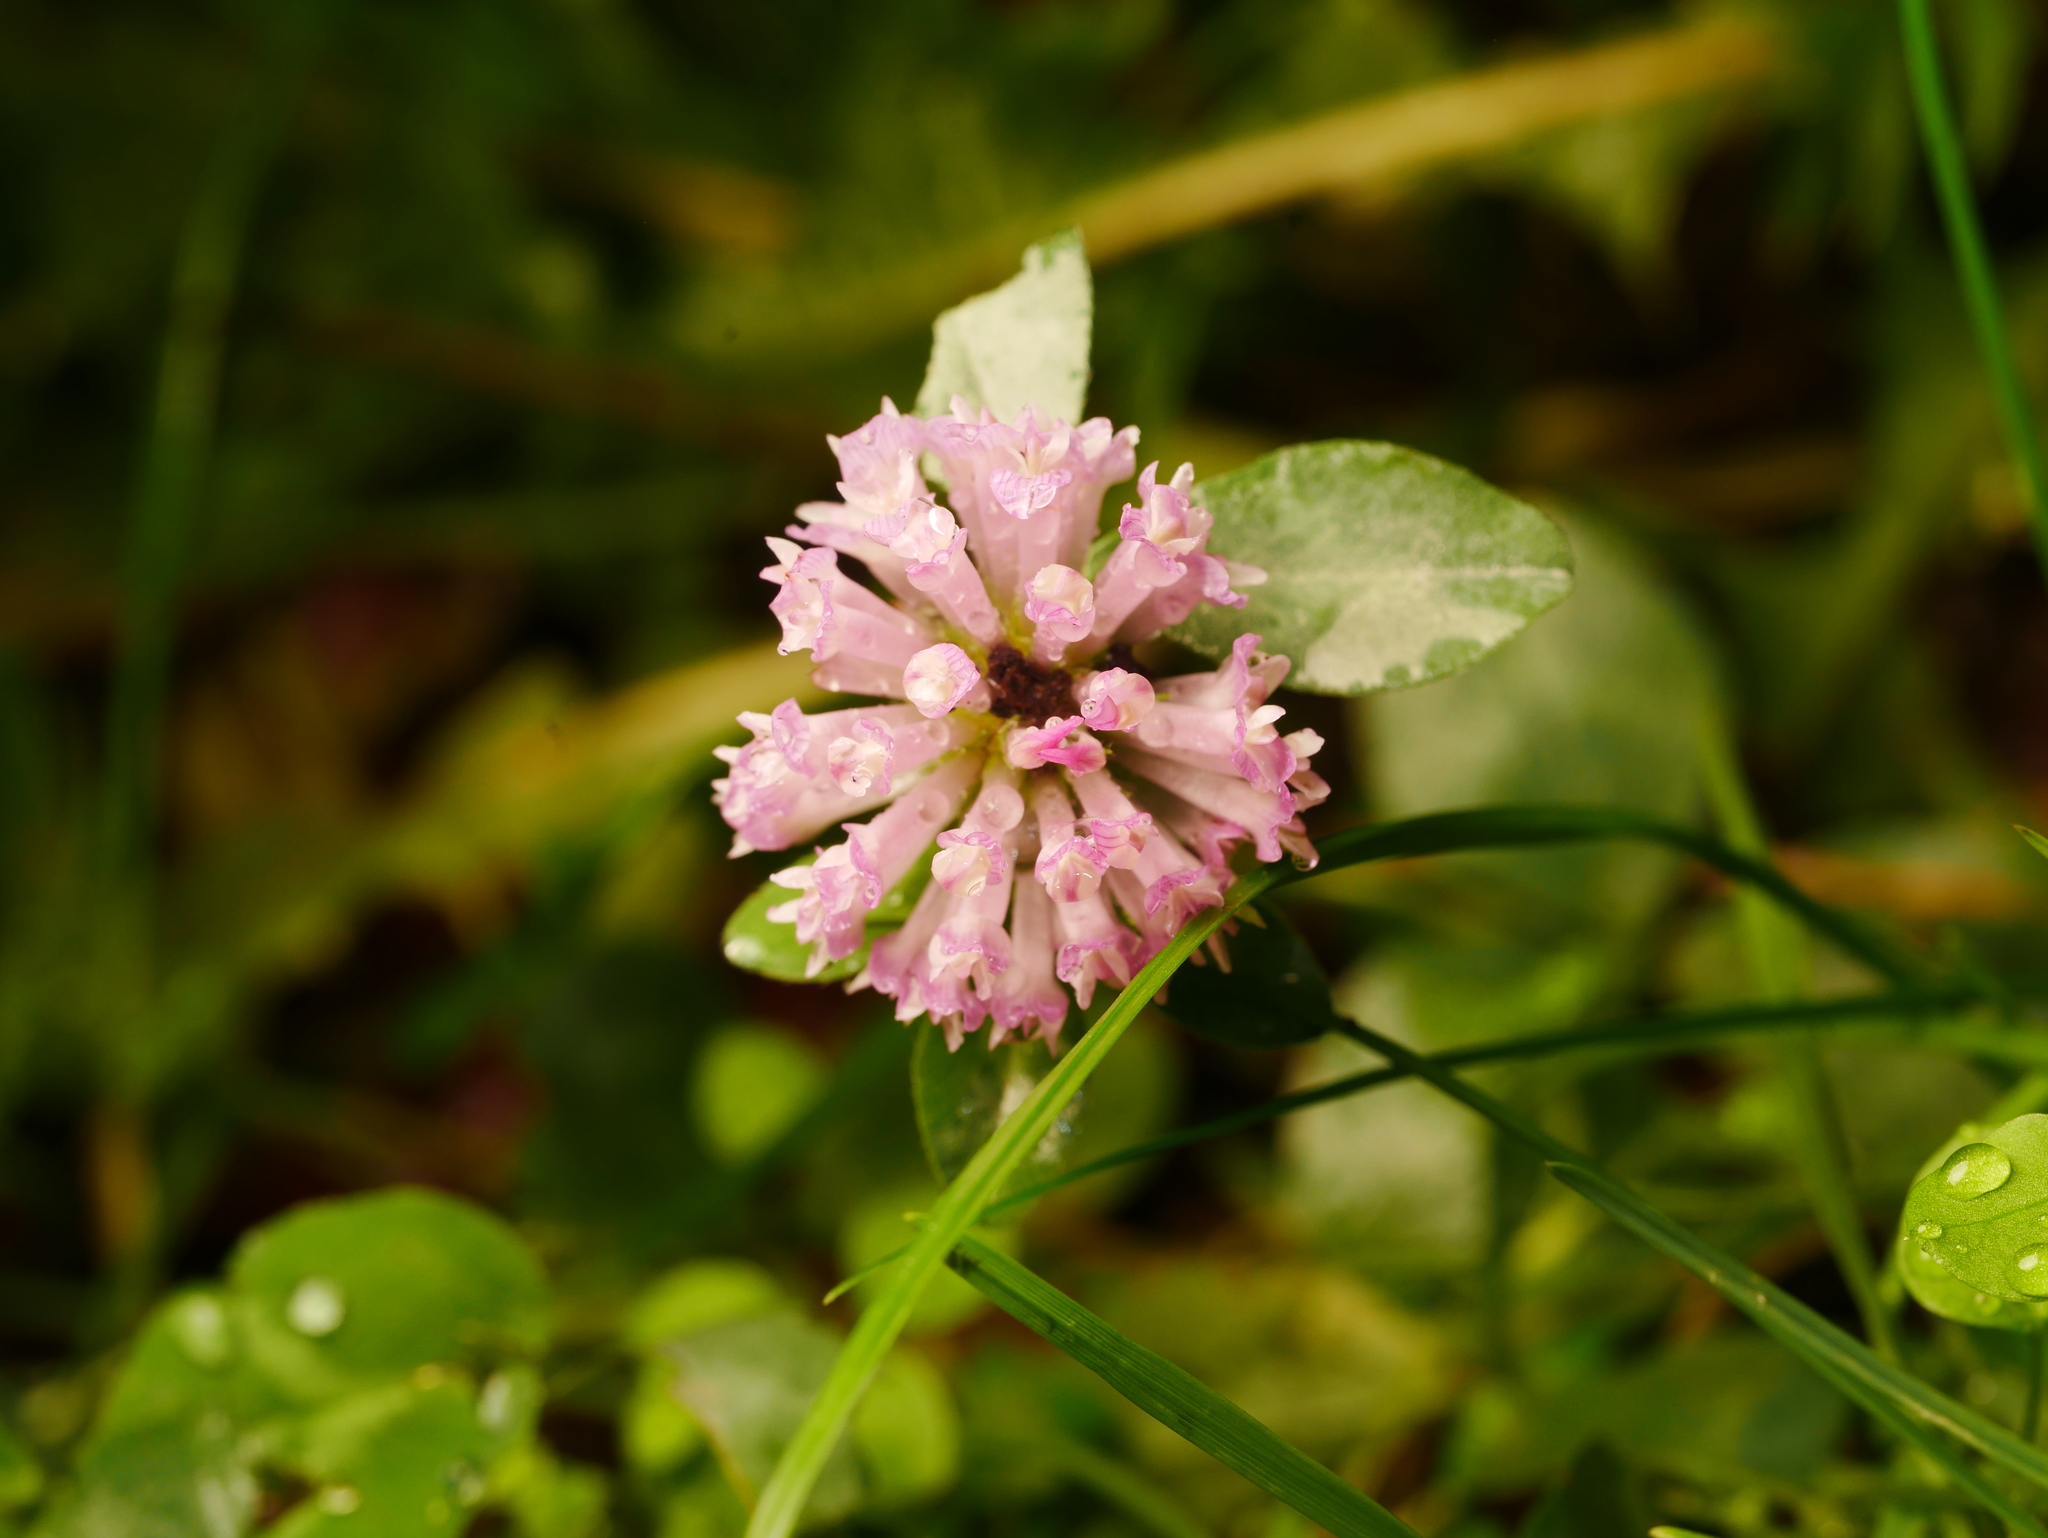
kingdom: Plantae
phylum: Tracheophyta
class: Magnoliopsida
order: Fabales
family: Fabaceae
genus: Trifolium
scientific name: Trifolium pratense
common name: Red clover
